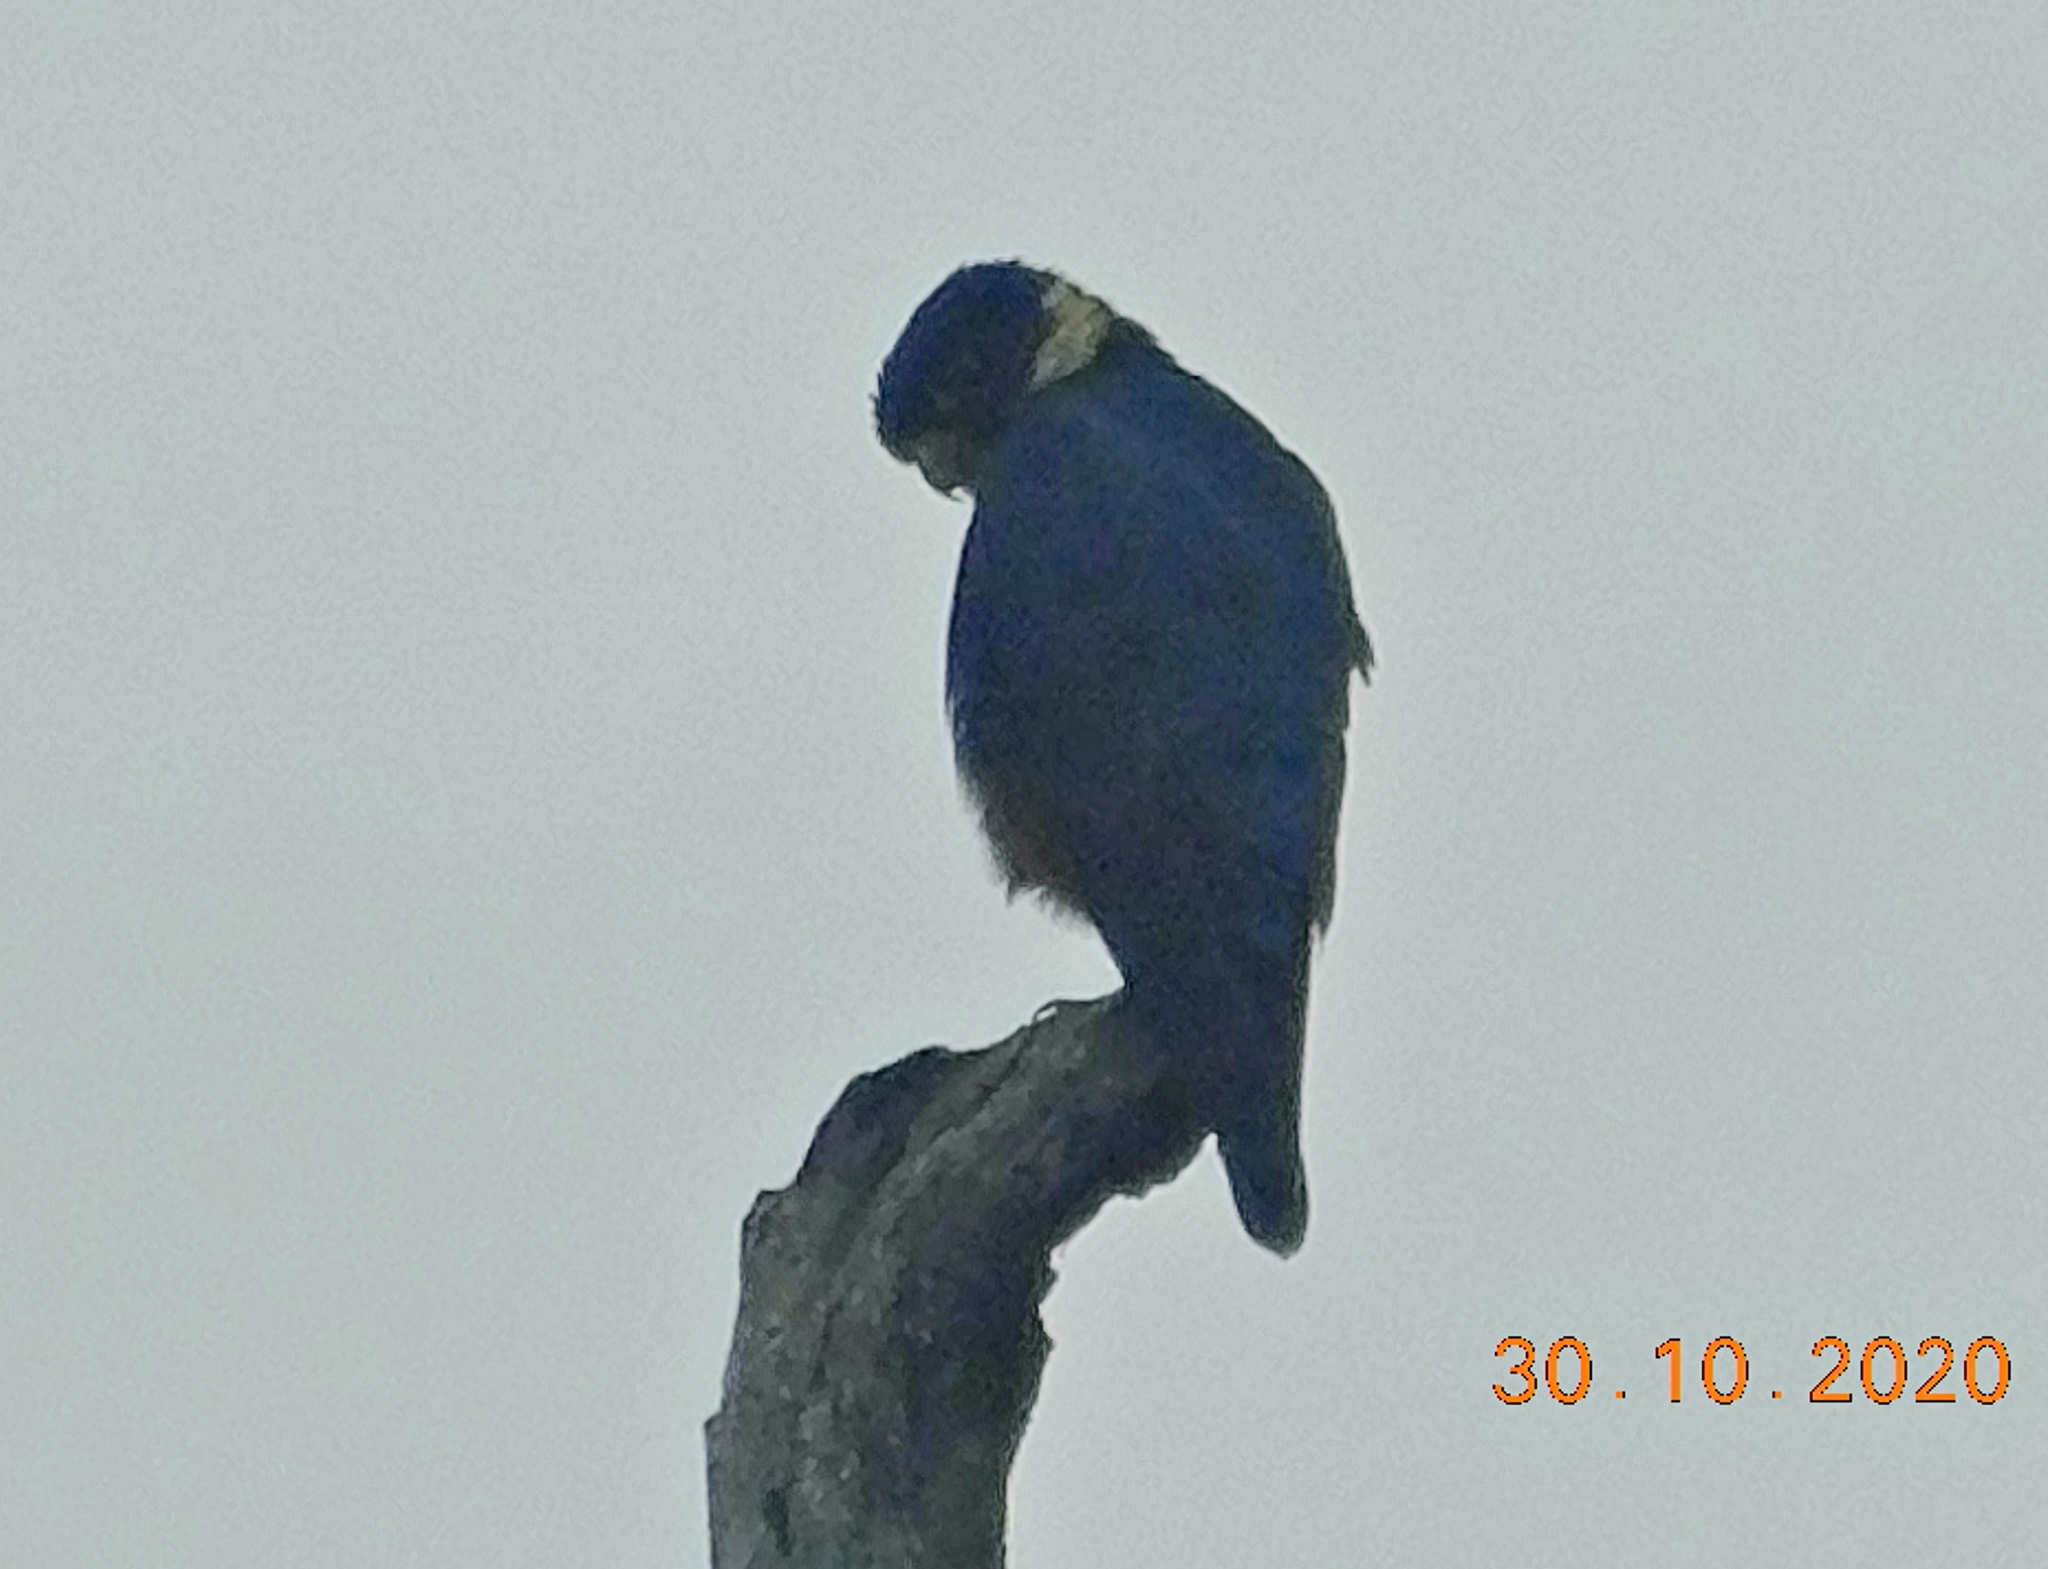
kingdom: Animalia
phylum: Chordata
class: Aves
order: Falconiformes
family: Falconidae
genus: Falco
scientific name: Falco rufigularis
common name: Bat falcon
